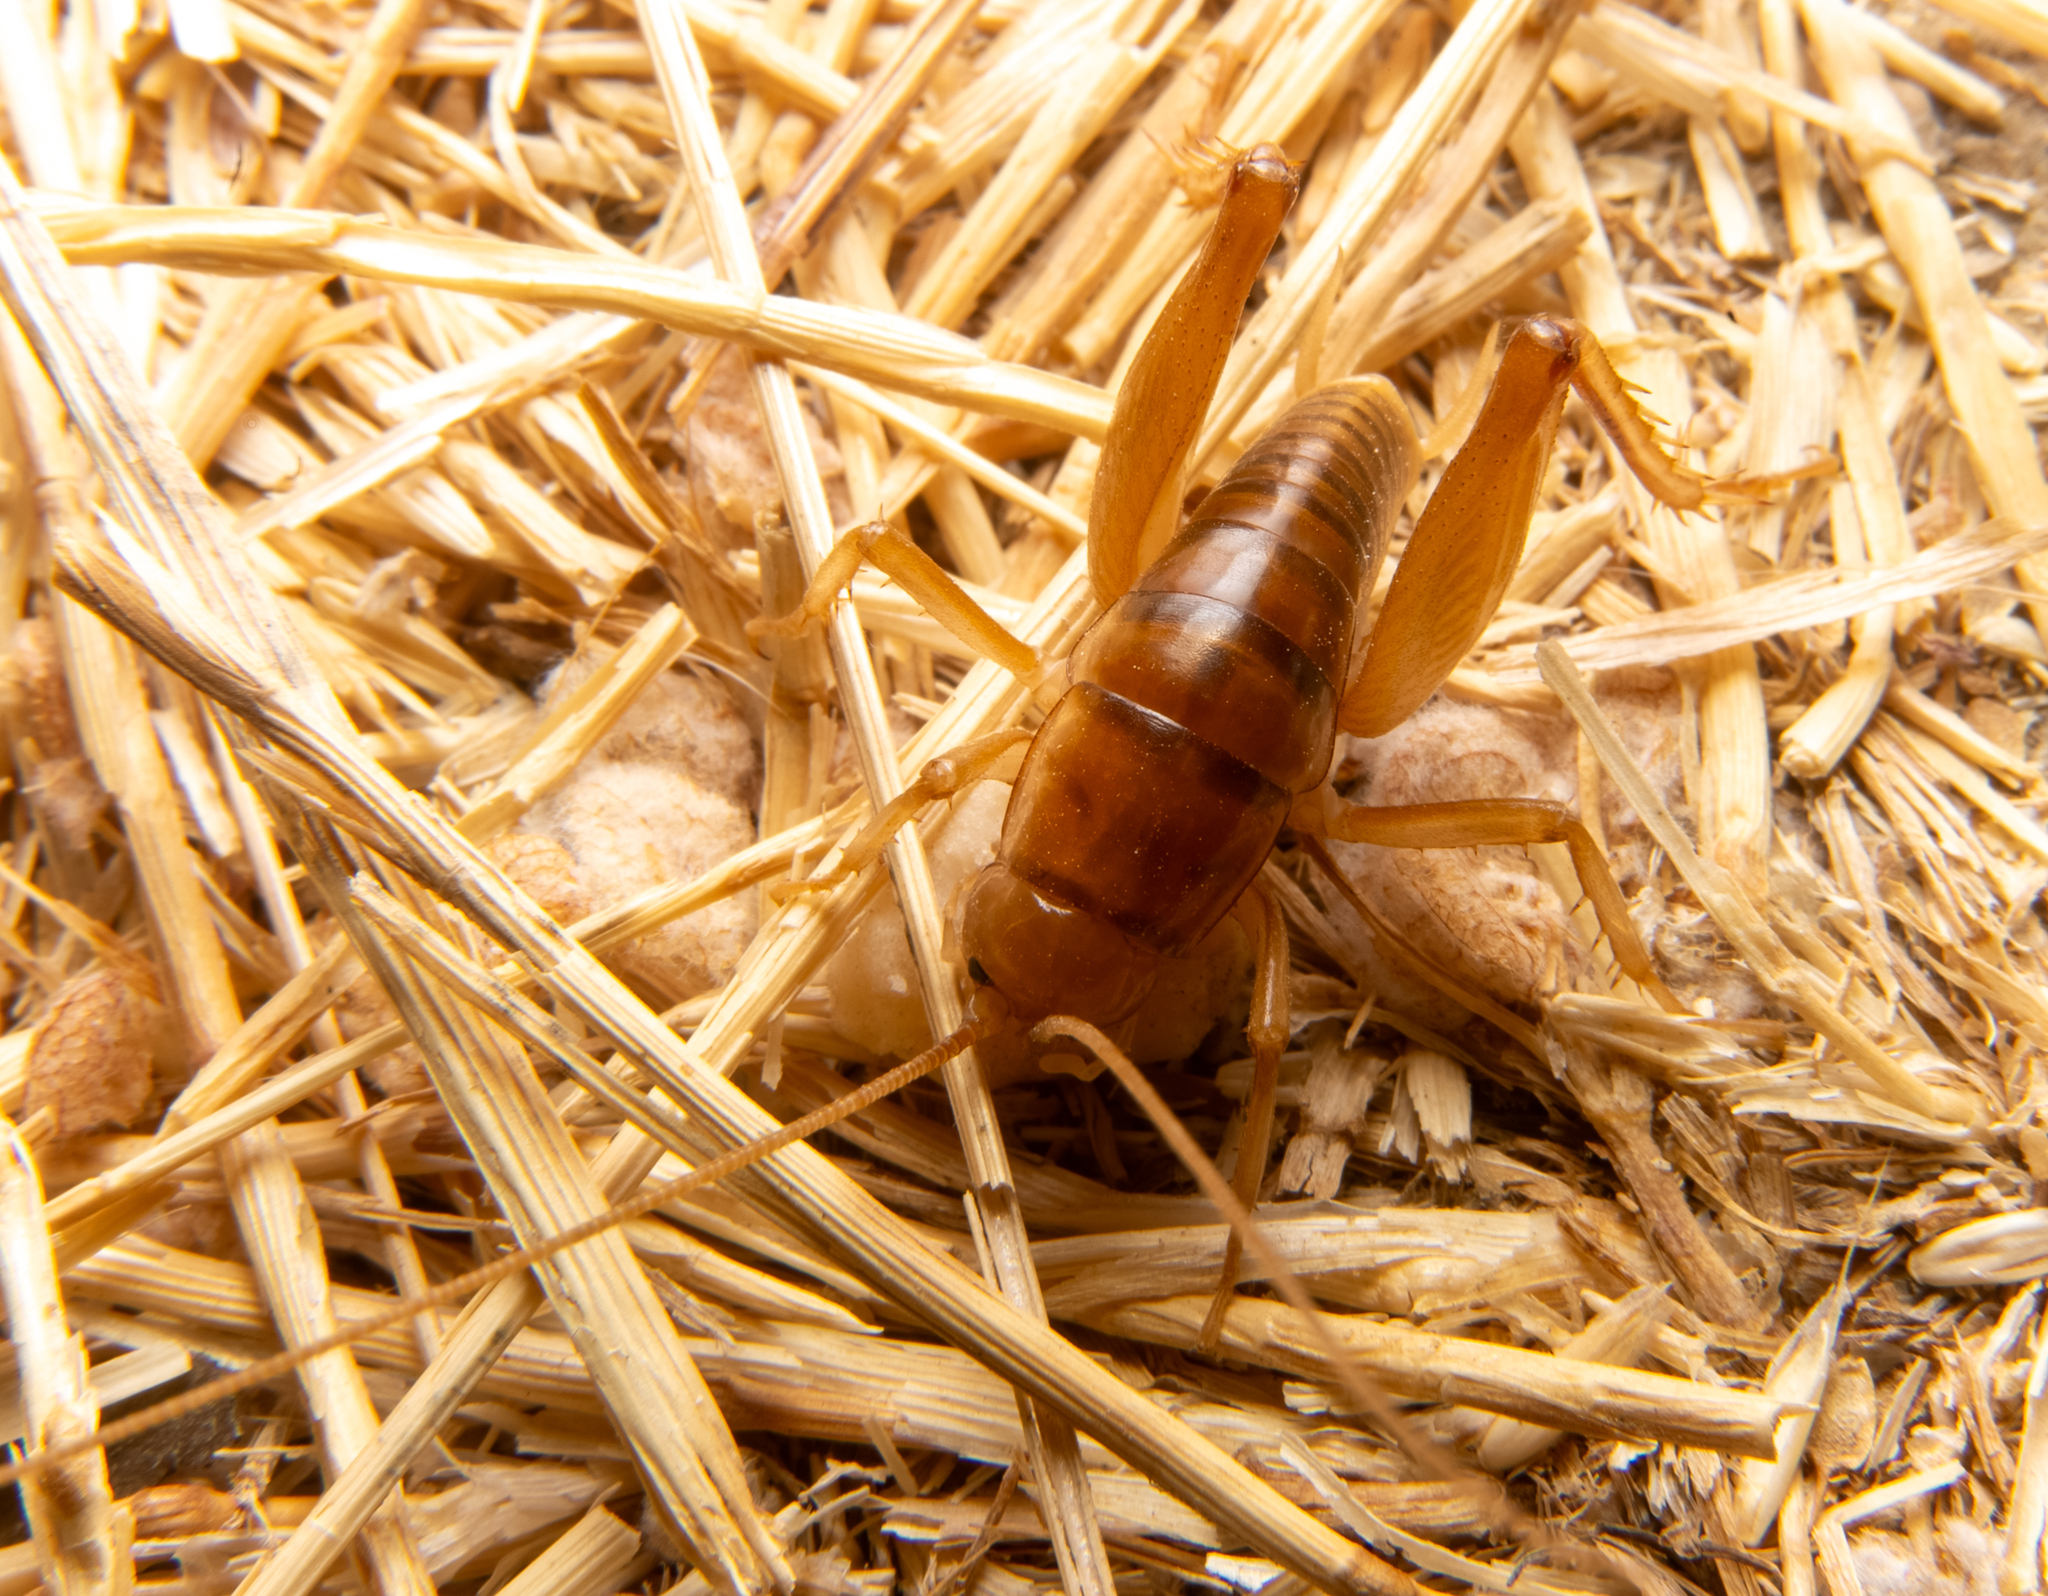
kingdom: Animalia
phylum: Arthropoda
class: Insecta
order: Orthoptera
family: Rhaphidophoridae
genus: Ceuthophilus
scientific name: Ceuthophilus californianus
